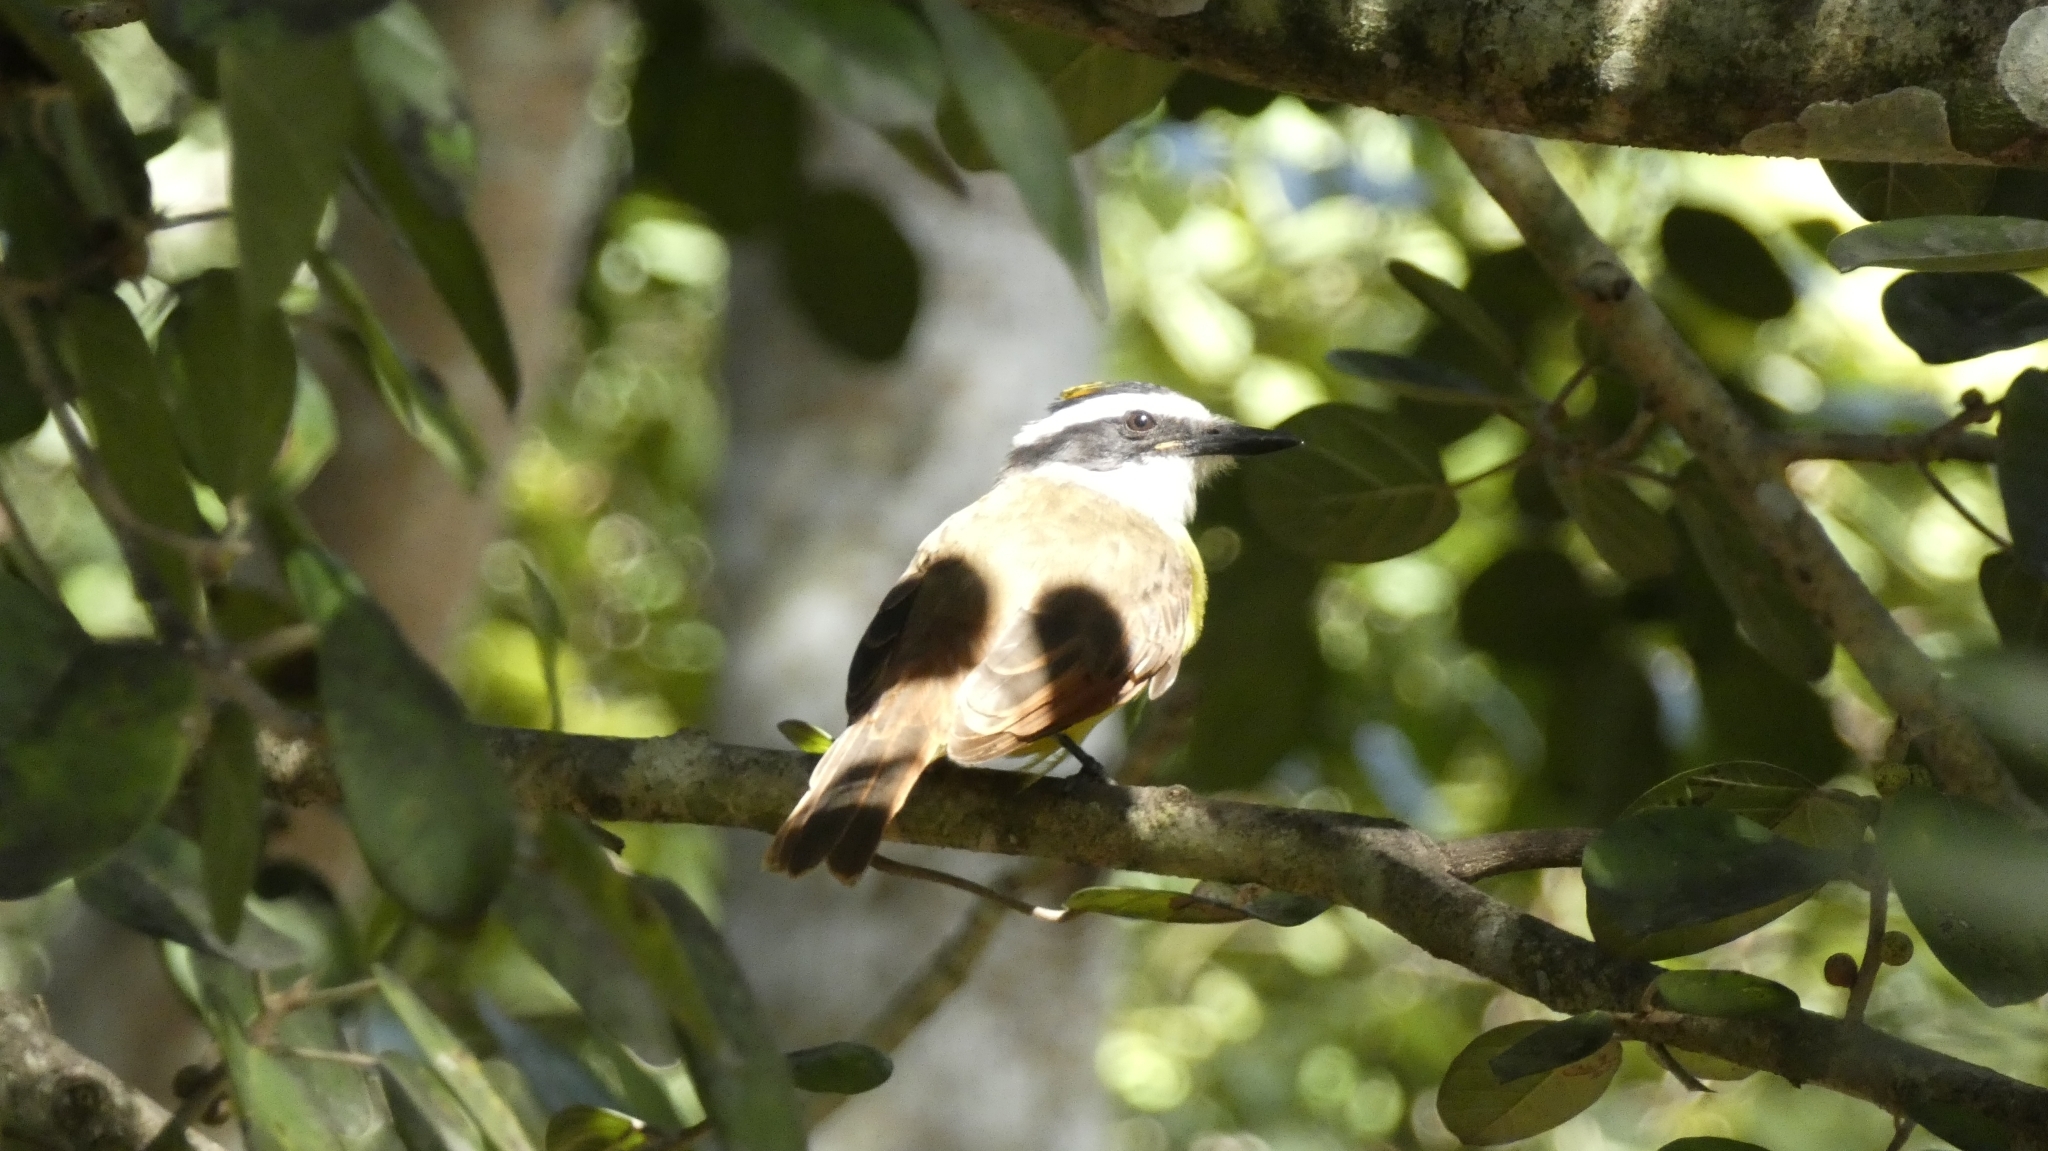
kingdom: Animalia
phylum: Chordata
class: Aves
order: Passeriformes
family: Tyrannidae
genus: Pitangus
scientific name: Pitangus sulphuratus
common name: Great kiskadee
